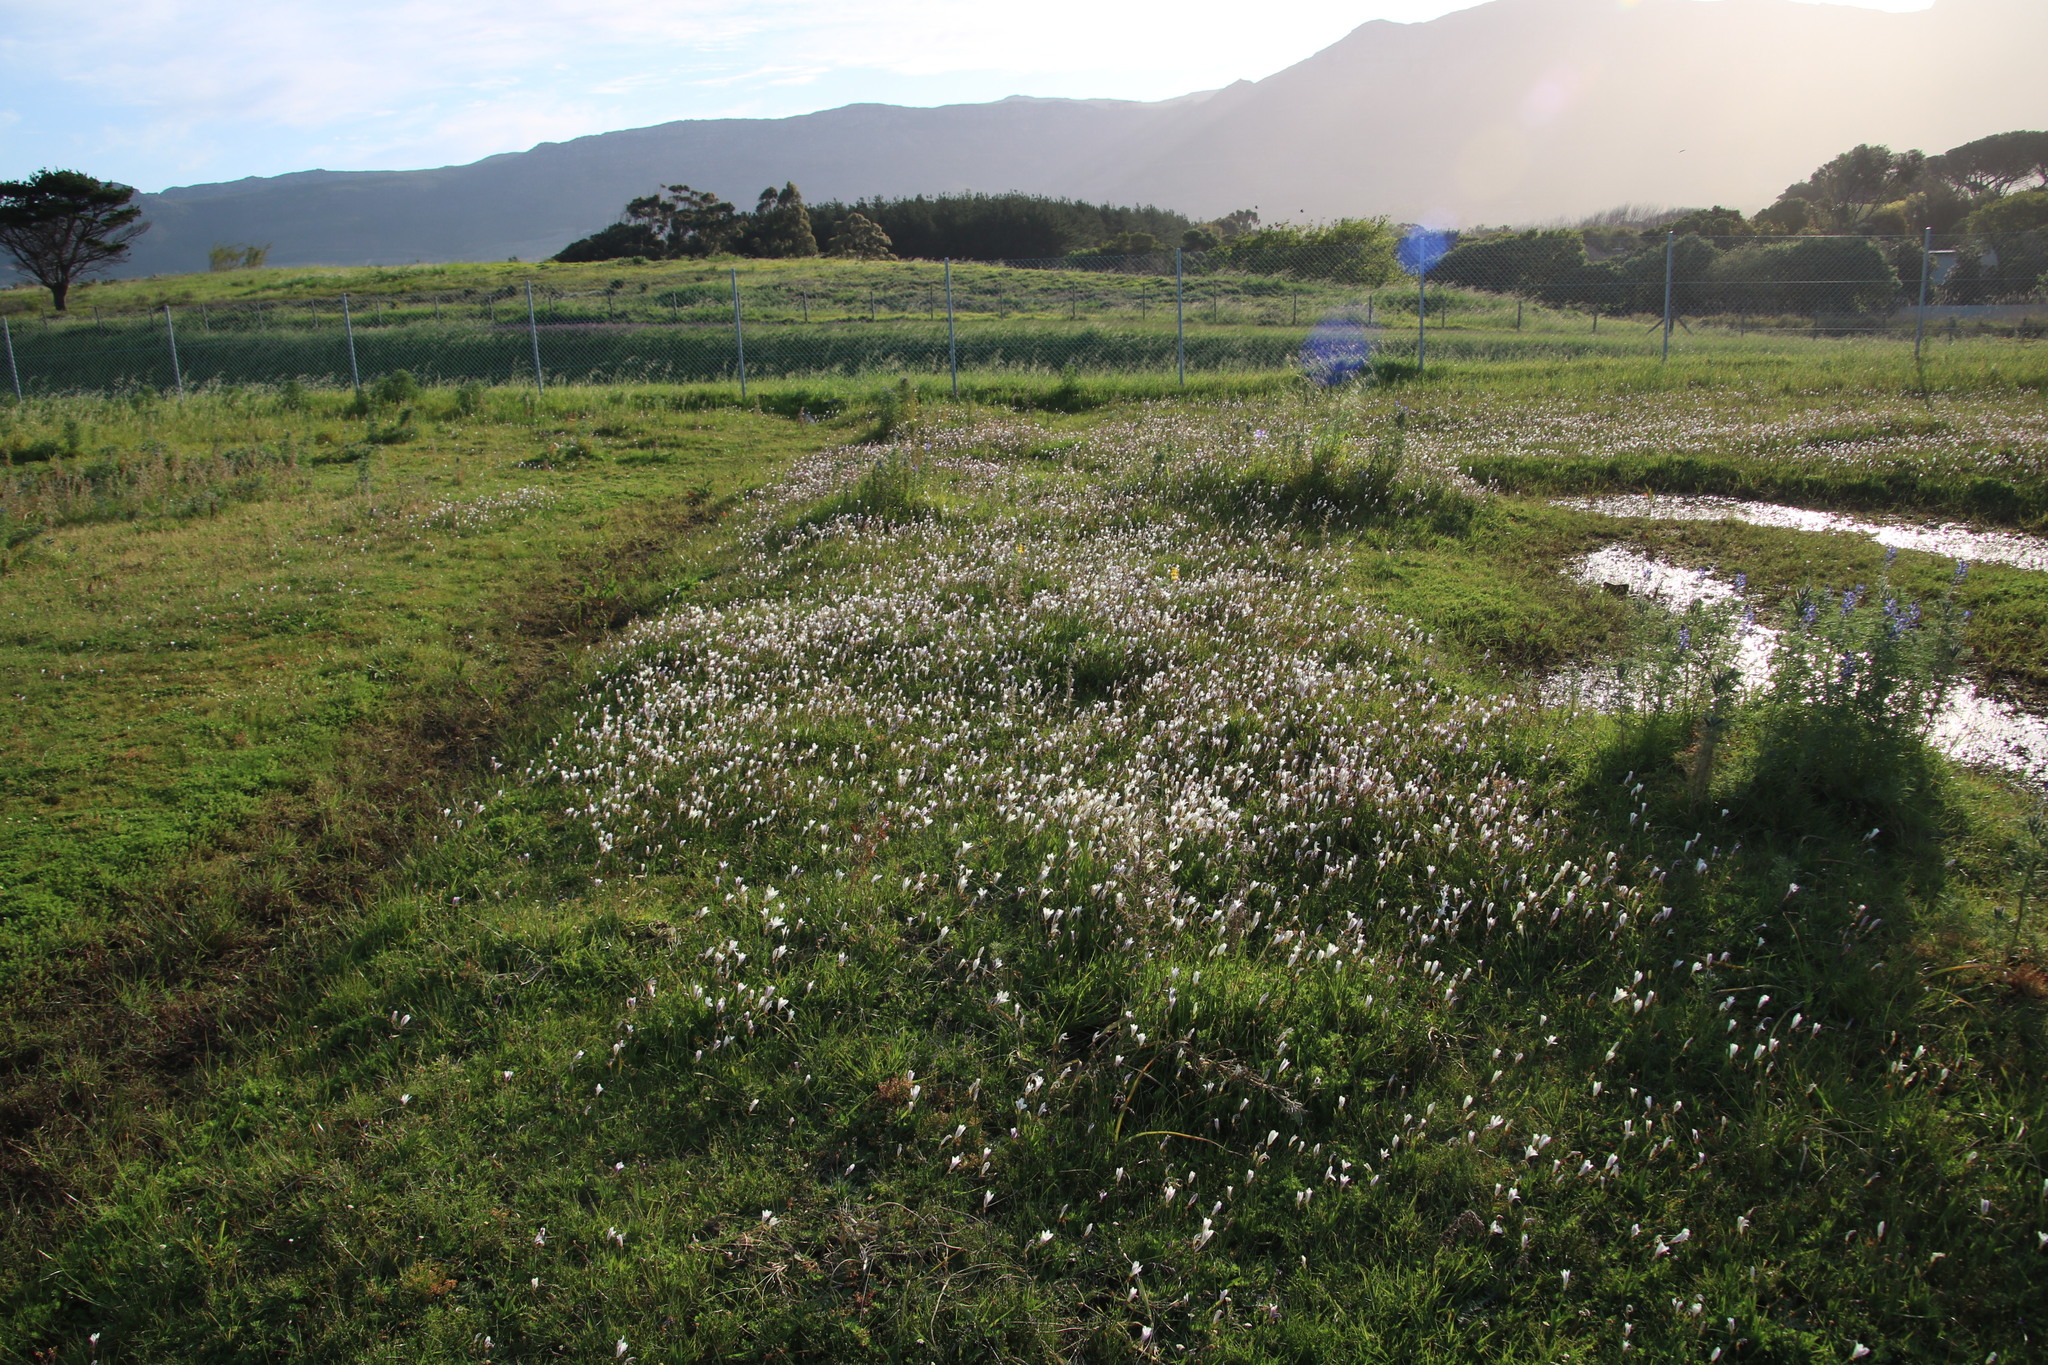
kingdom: Plantae
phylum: Tracheophyta
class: Liliopsida
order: Asparagales
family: Iridaceae
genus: Sparaxis
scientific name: Sparaxis bulbifera
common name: Harlequin-flower
